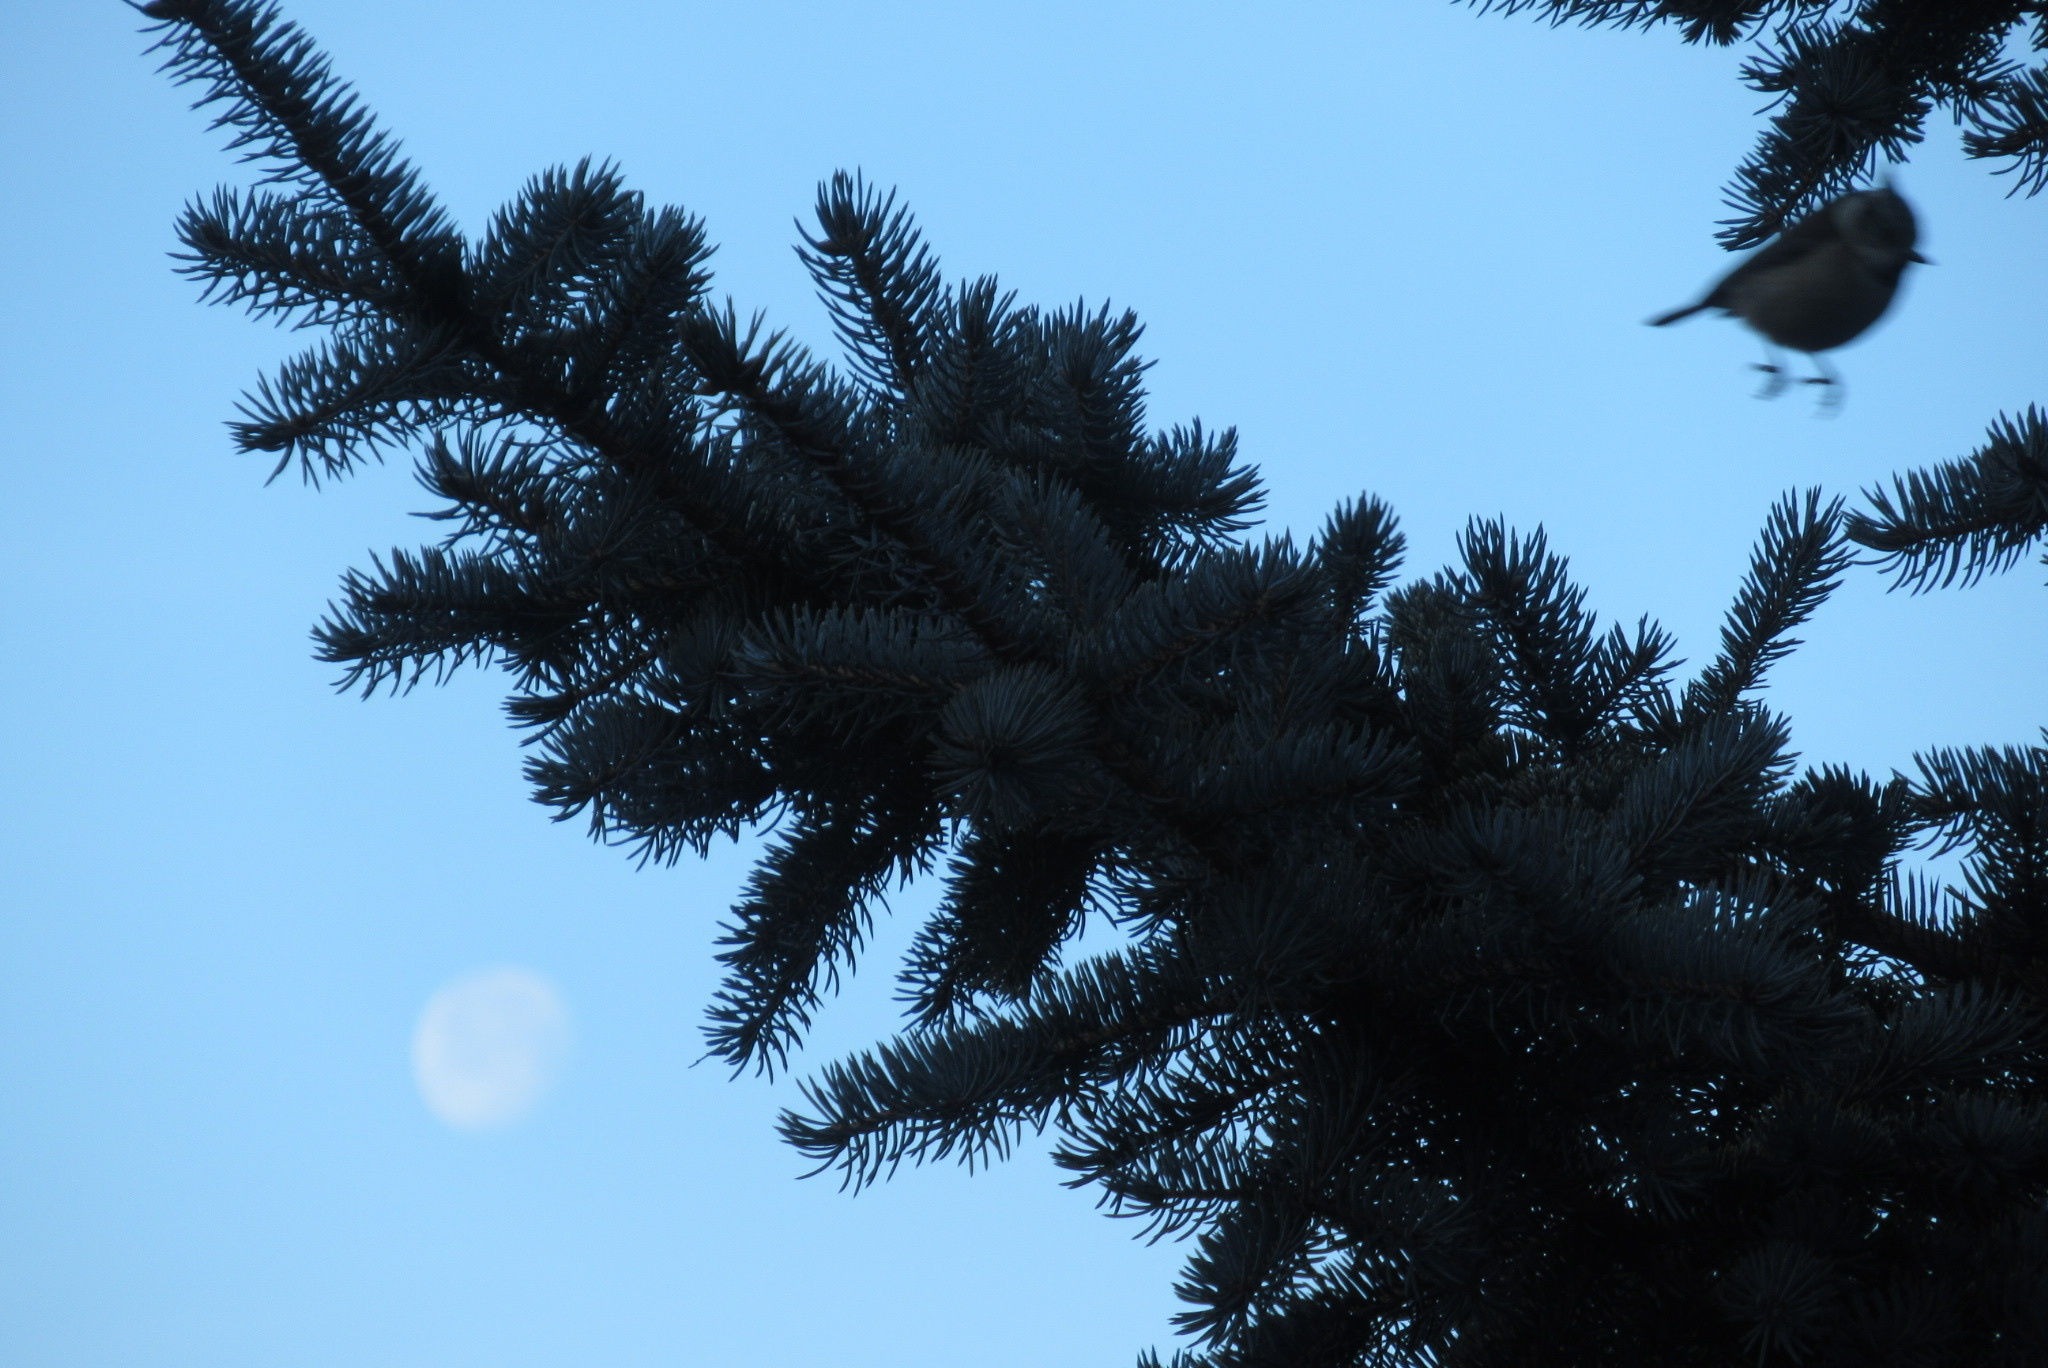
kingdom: Animalia
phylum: Chordata
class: Aves
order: Passeriformes
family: Paridae
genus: Lophophanes
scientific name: Lophophanes cristatus
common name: European crested tit
